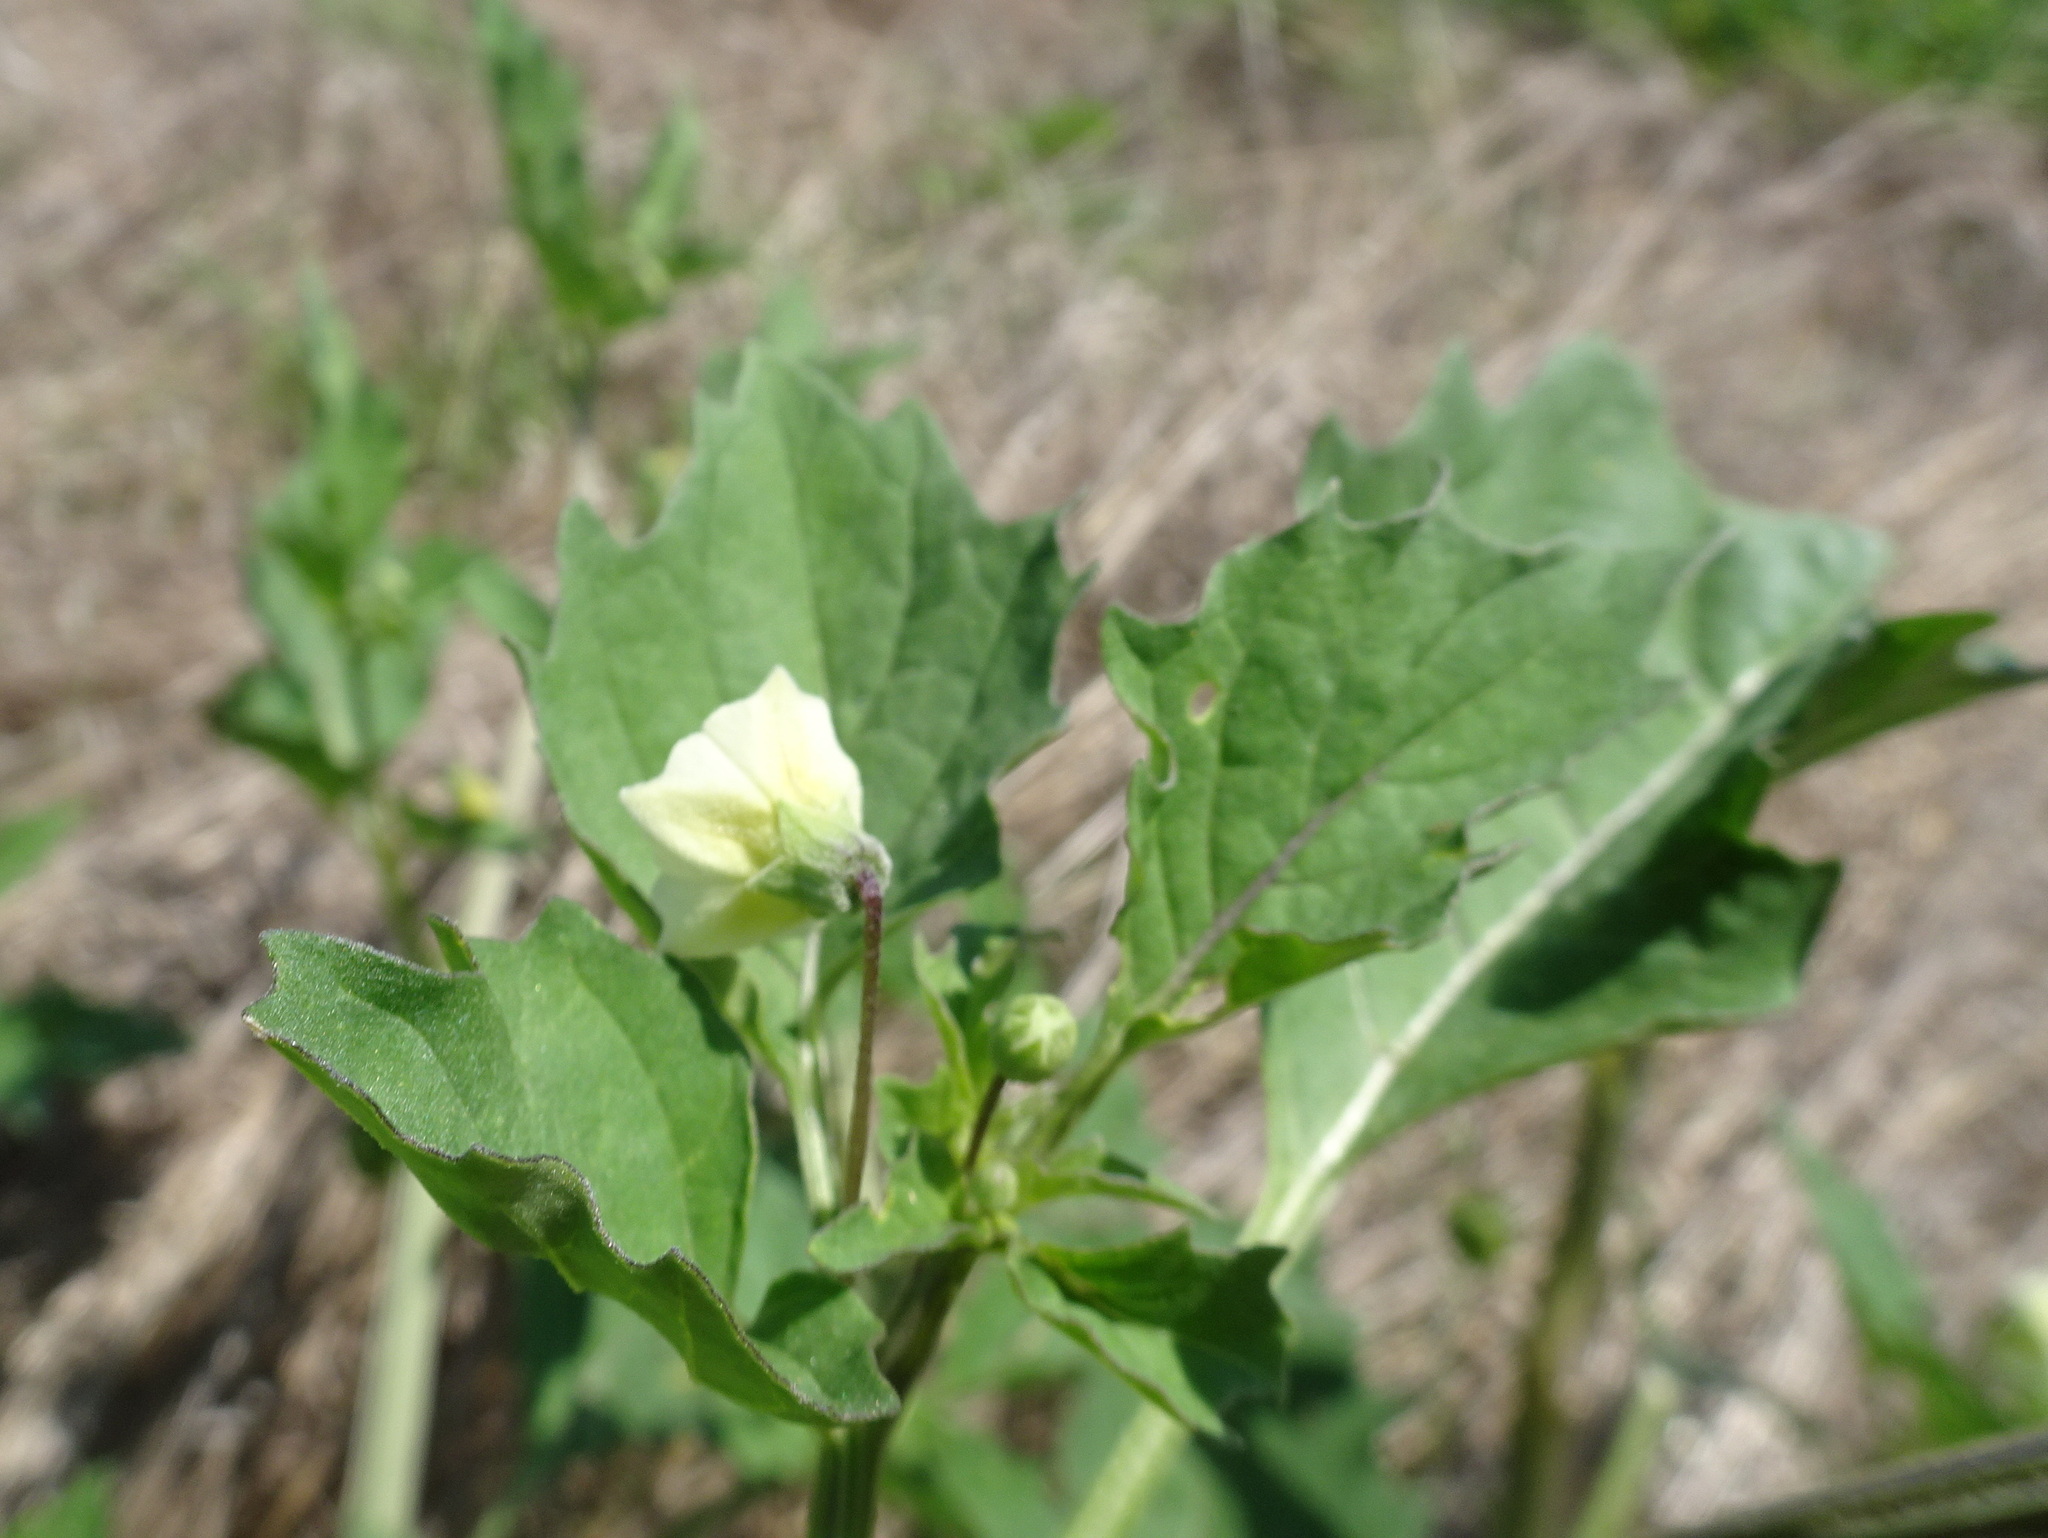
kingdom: Plantae
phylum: Tracheophyta
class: Magnoliopsida
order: Solanales
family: Solanaceae
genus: Physalis
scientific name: Physalis angulata
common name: Angular winter-cherry
